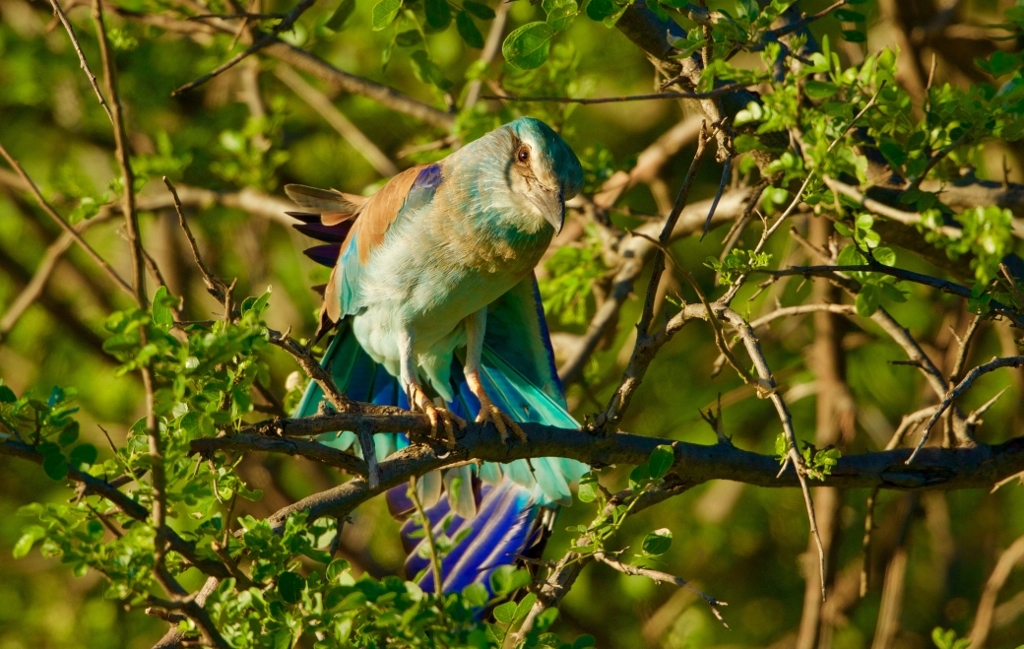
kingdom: Animalia
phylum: Chordata
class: Aves
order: Coraciiformes
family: Coraciidae
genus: Coracias
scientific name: Coracias garrulus
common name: European roller
